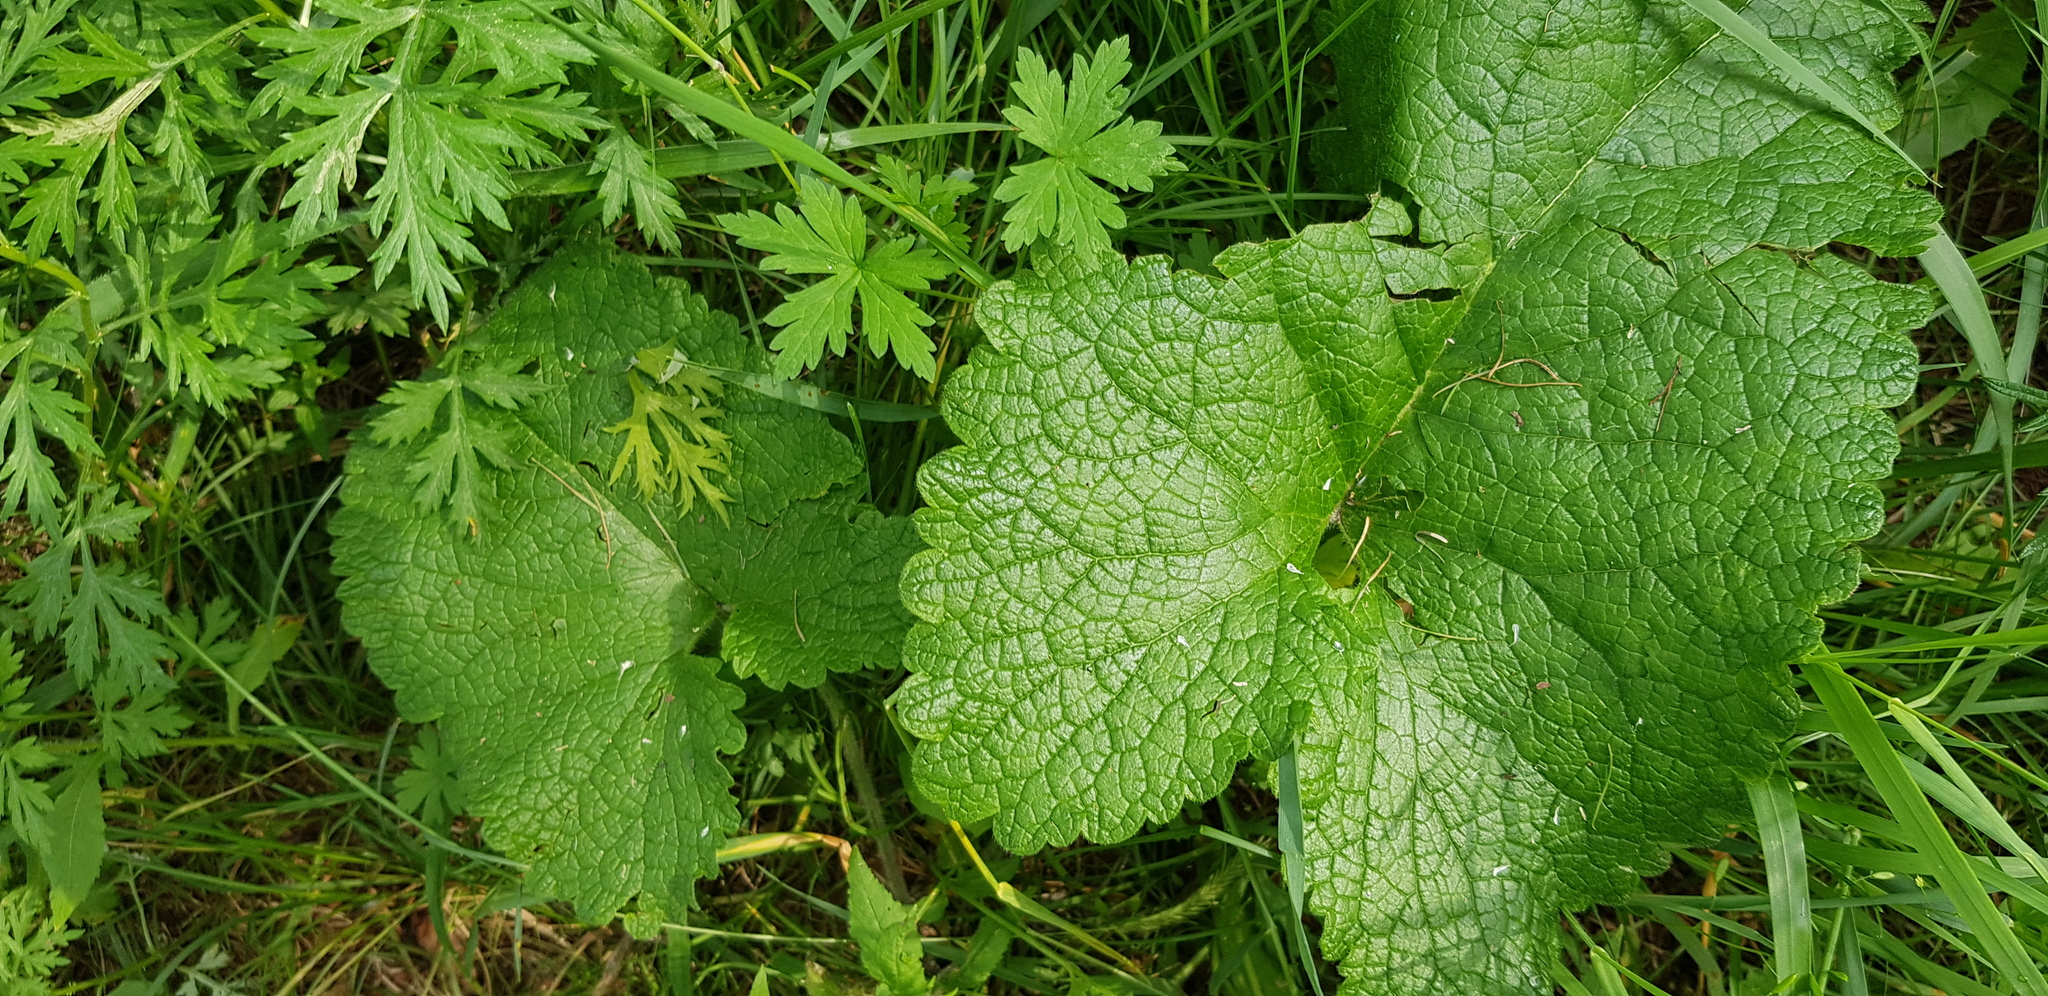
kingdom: Plantae
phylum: Tracheophyta
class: Magnoliopsida
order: Lamiales
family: Lamiaceae
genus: Phlomoides
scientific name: Phlomoides tuberosa
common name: Tuberous jerusalem sage
